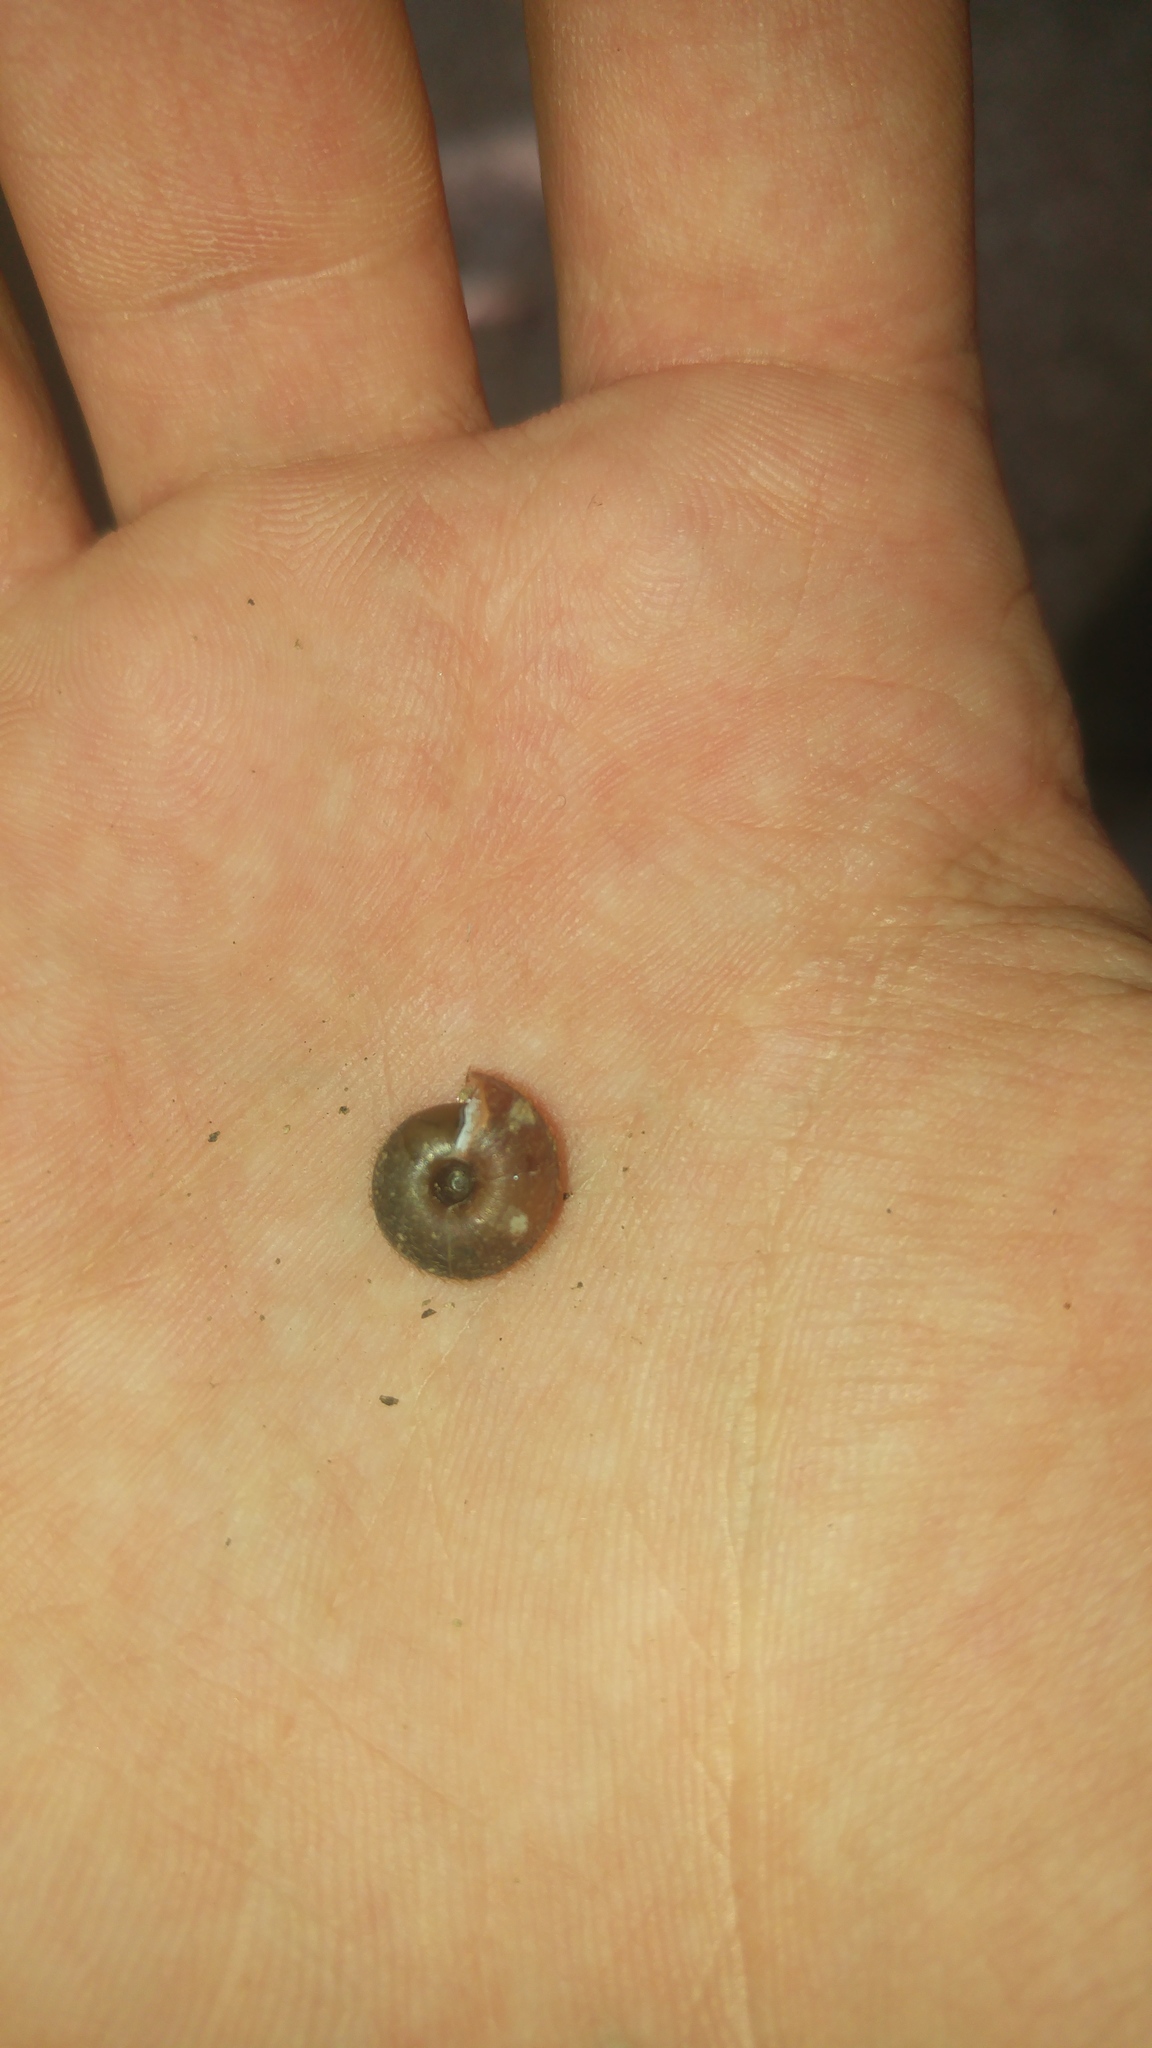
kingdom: Animalia
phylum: Mollusca
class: Gastropoda
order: Stylommatophora
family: Helicodontidae
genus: Helicodonta
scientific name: Helicodonta obvoluta
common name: Cheese snail
